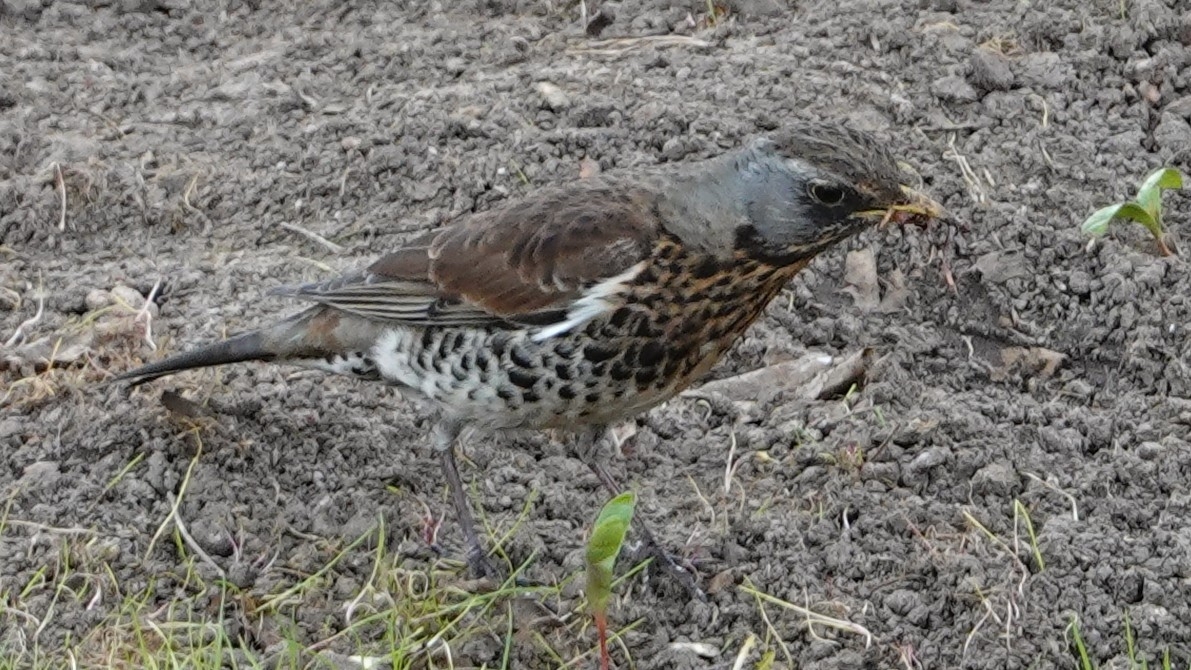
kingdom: Animalia
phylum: Chordata
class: Aves
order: Passeriformes
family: Turdidae
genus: Turdus
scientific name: Turdus pilaris
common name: Fieldfare
